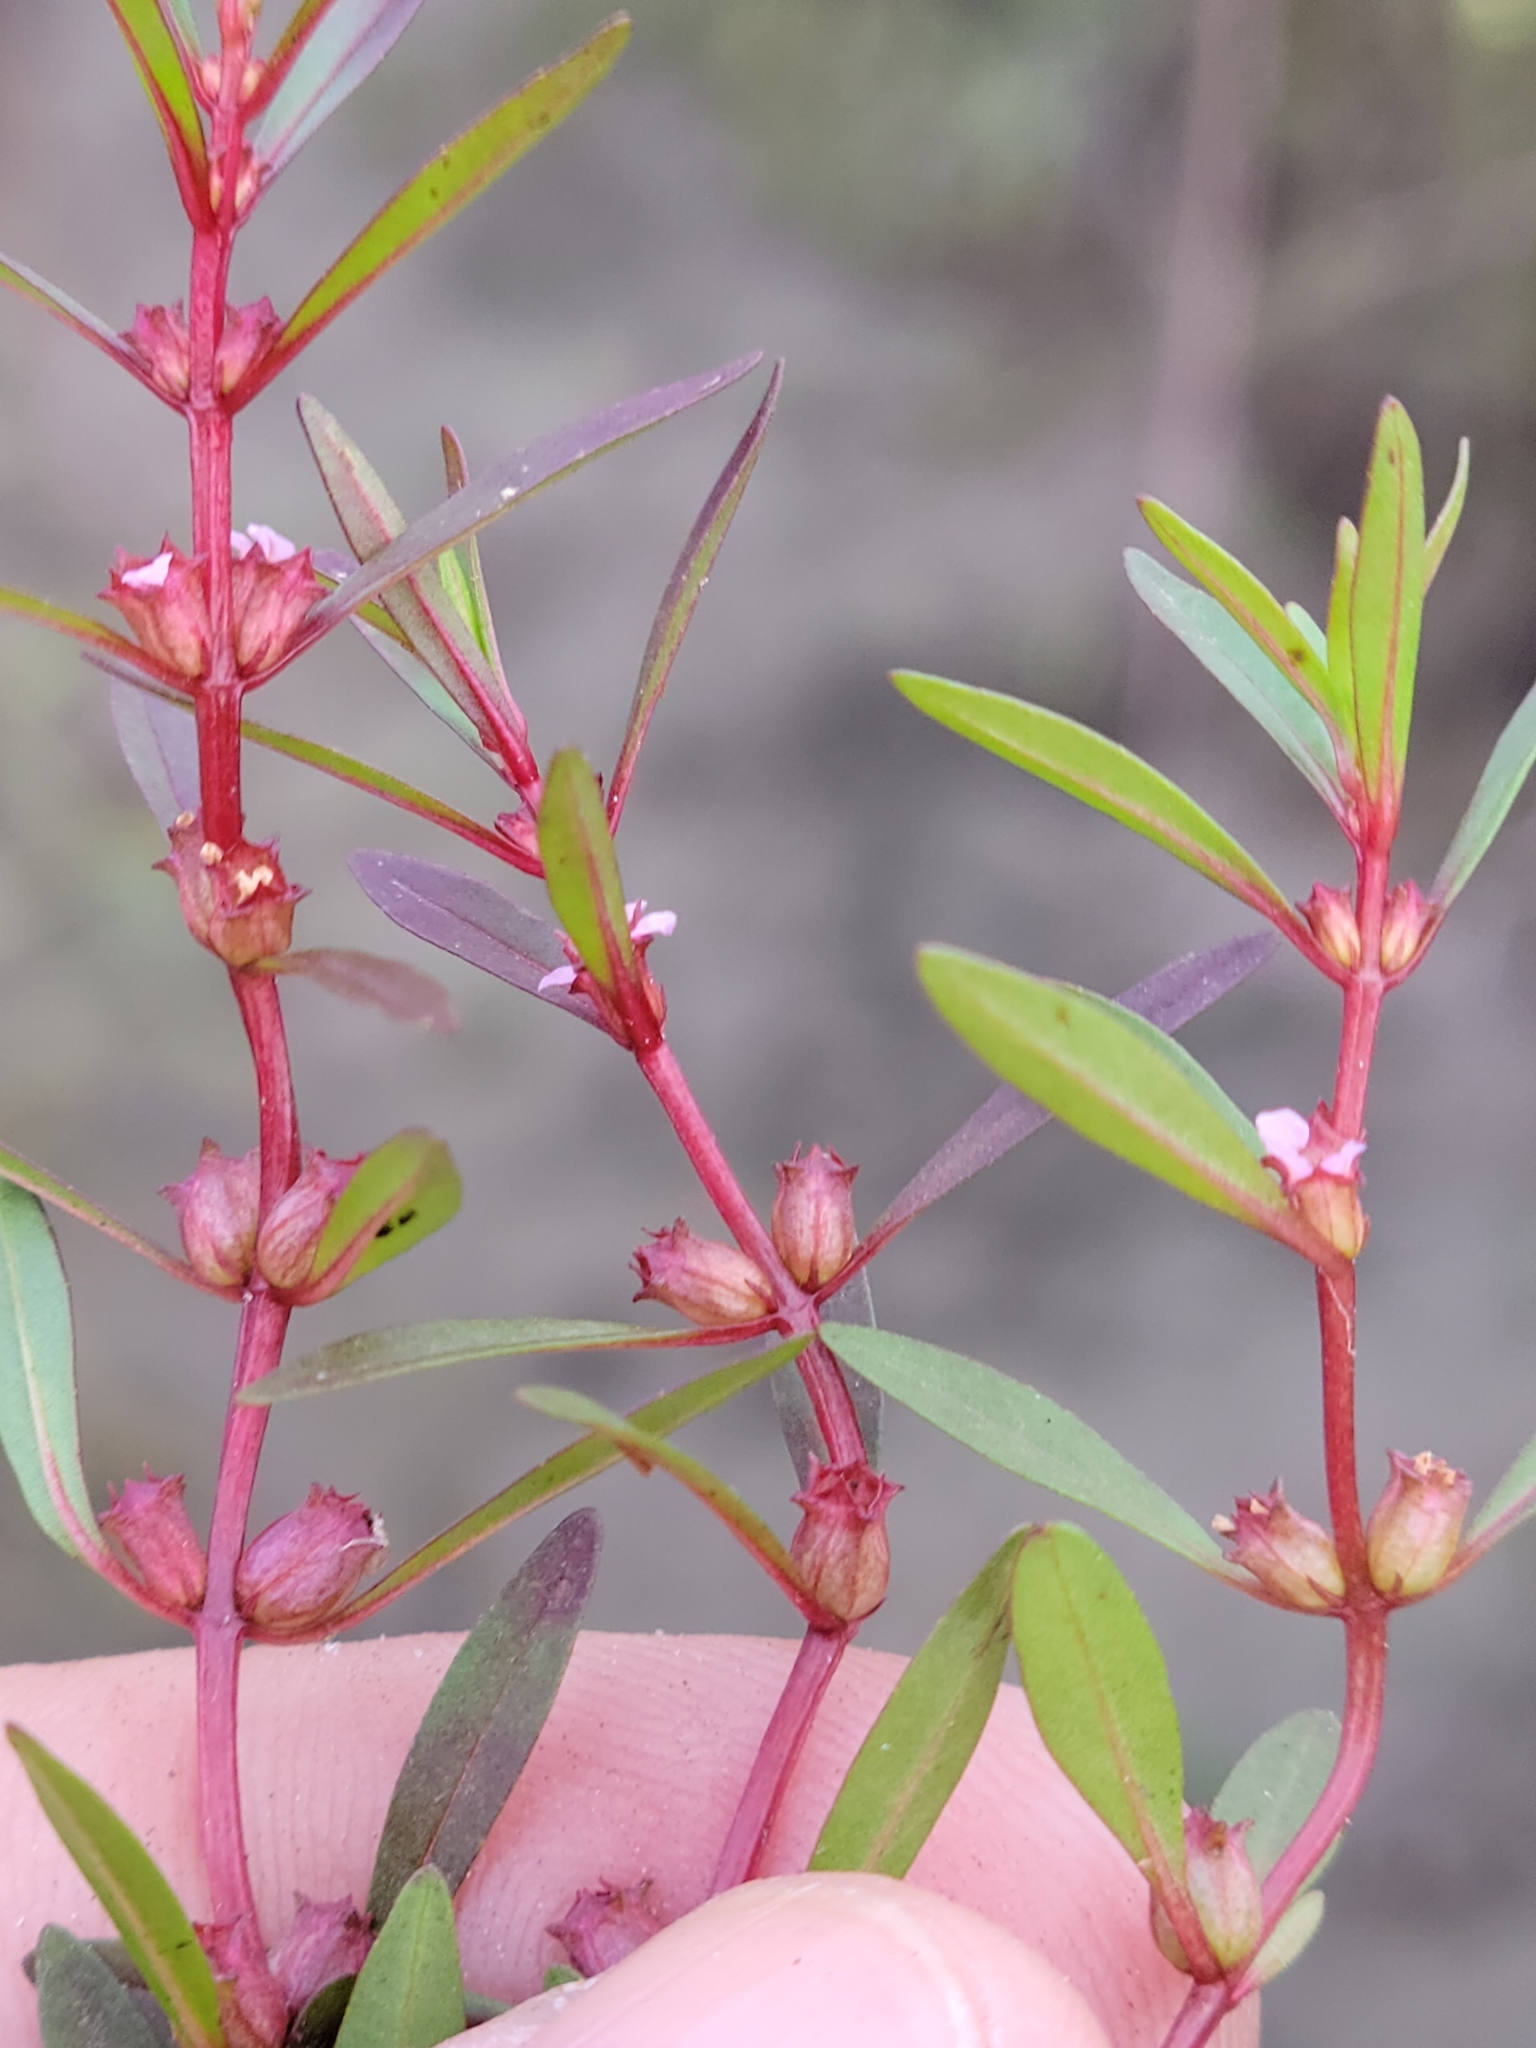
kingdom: Plantae
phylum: Tracheophyta
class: Magnoliopsida
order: Myrtales
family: Lythraceae
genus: Rotala
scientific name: Rotala ramosior
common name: Lowland rotala
